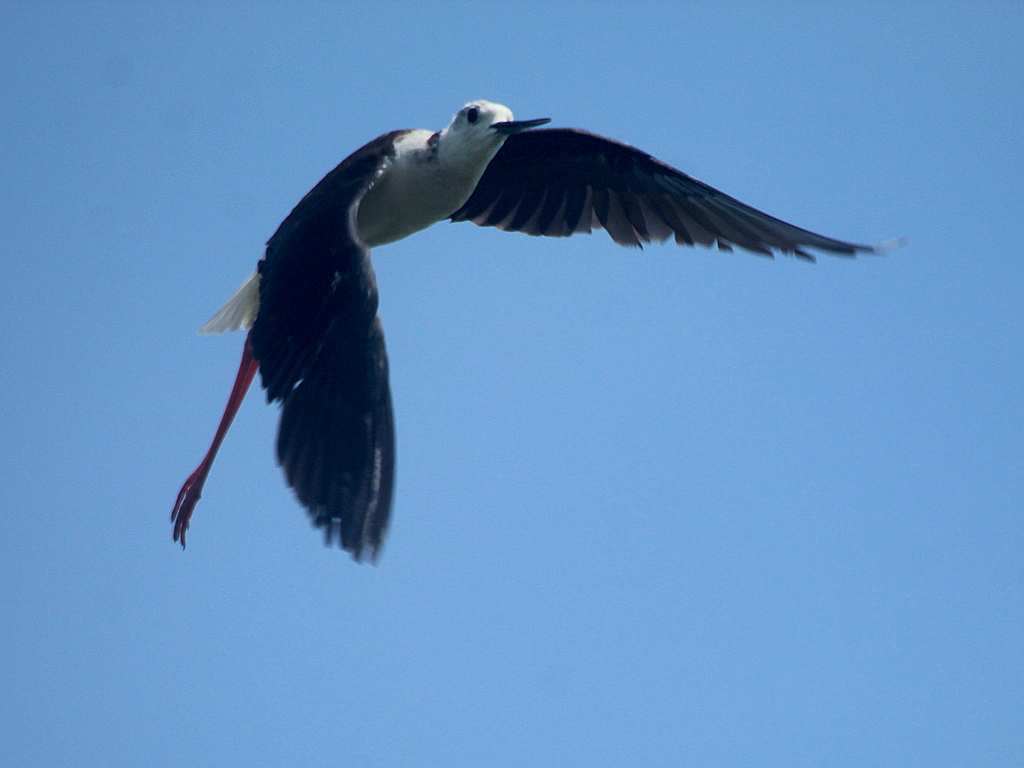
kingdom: Animalia
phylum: Chordata
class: Aves
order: Charadriiformes
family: Recurvirostridae
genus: Himantopus
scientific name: Himantopus himantopus
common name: Black-winged stilt
